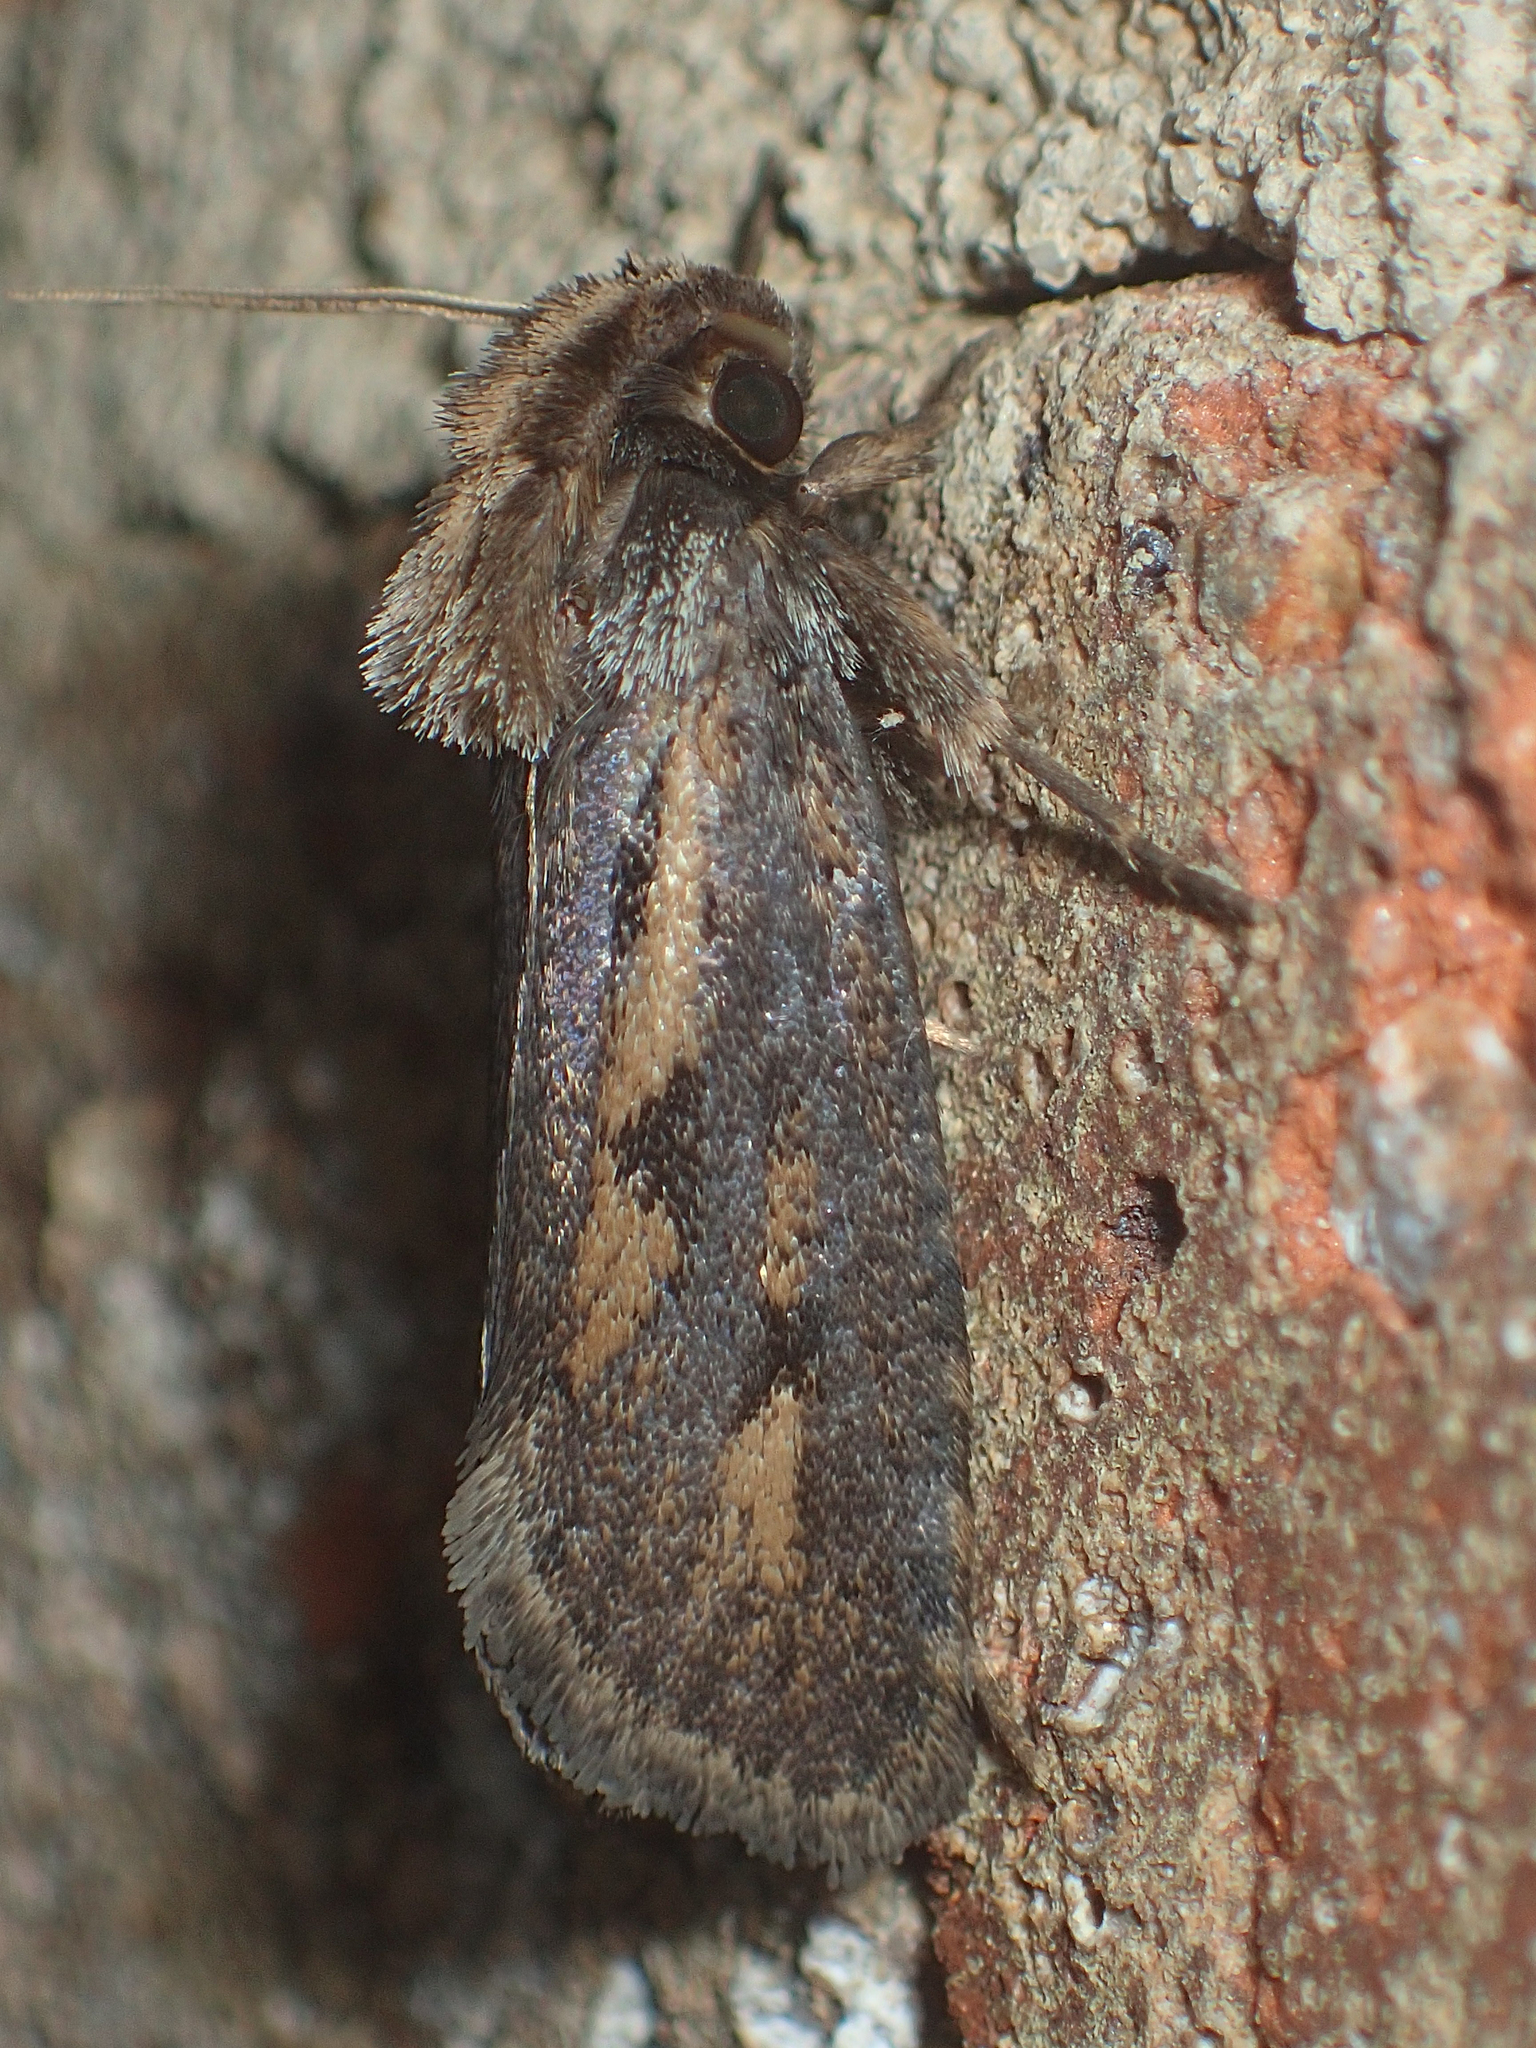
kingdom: Animalia
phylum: Arthropoda
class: Insecta
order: Lepidoptera
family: Tineidae
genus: Acrolophus
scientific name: Acrolophus popeanella
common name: Clemens' grass tubeworm moth
